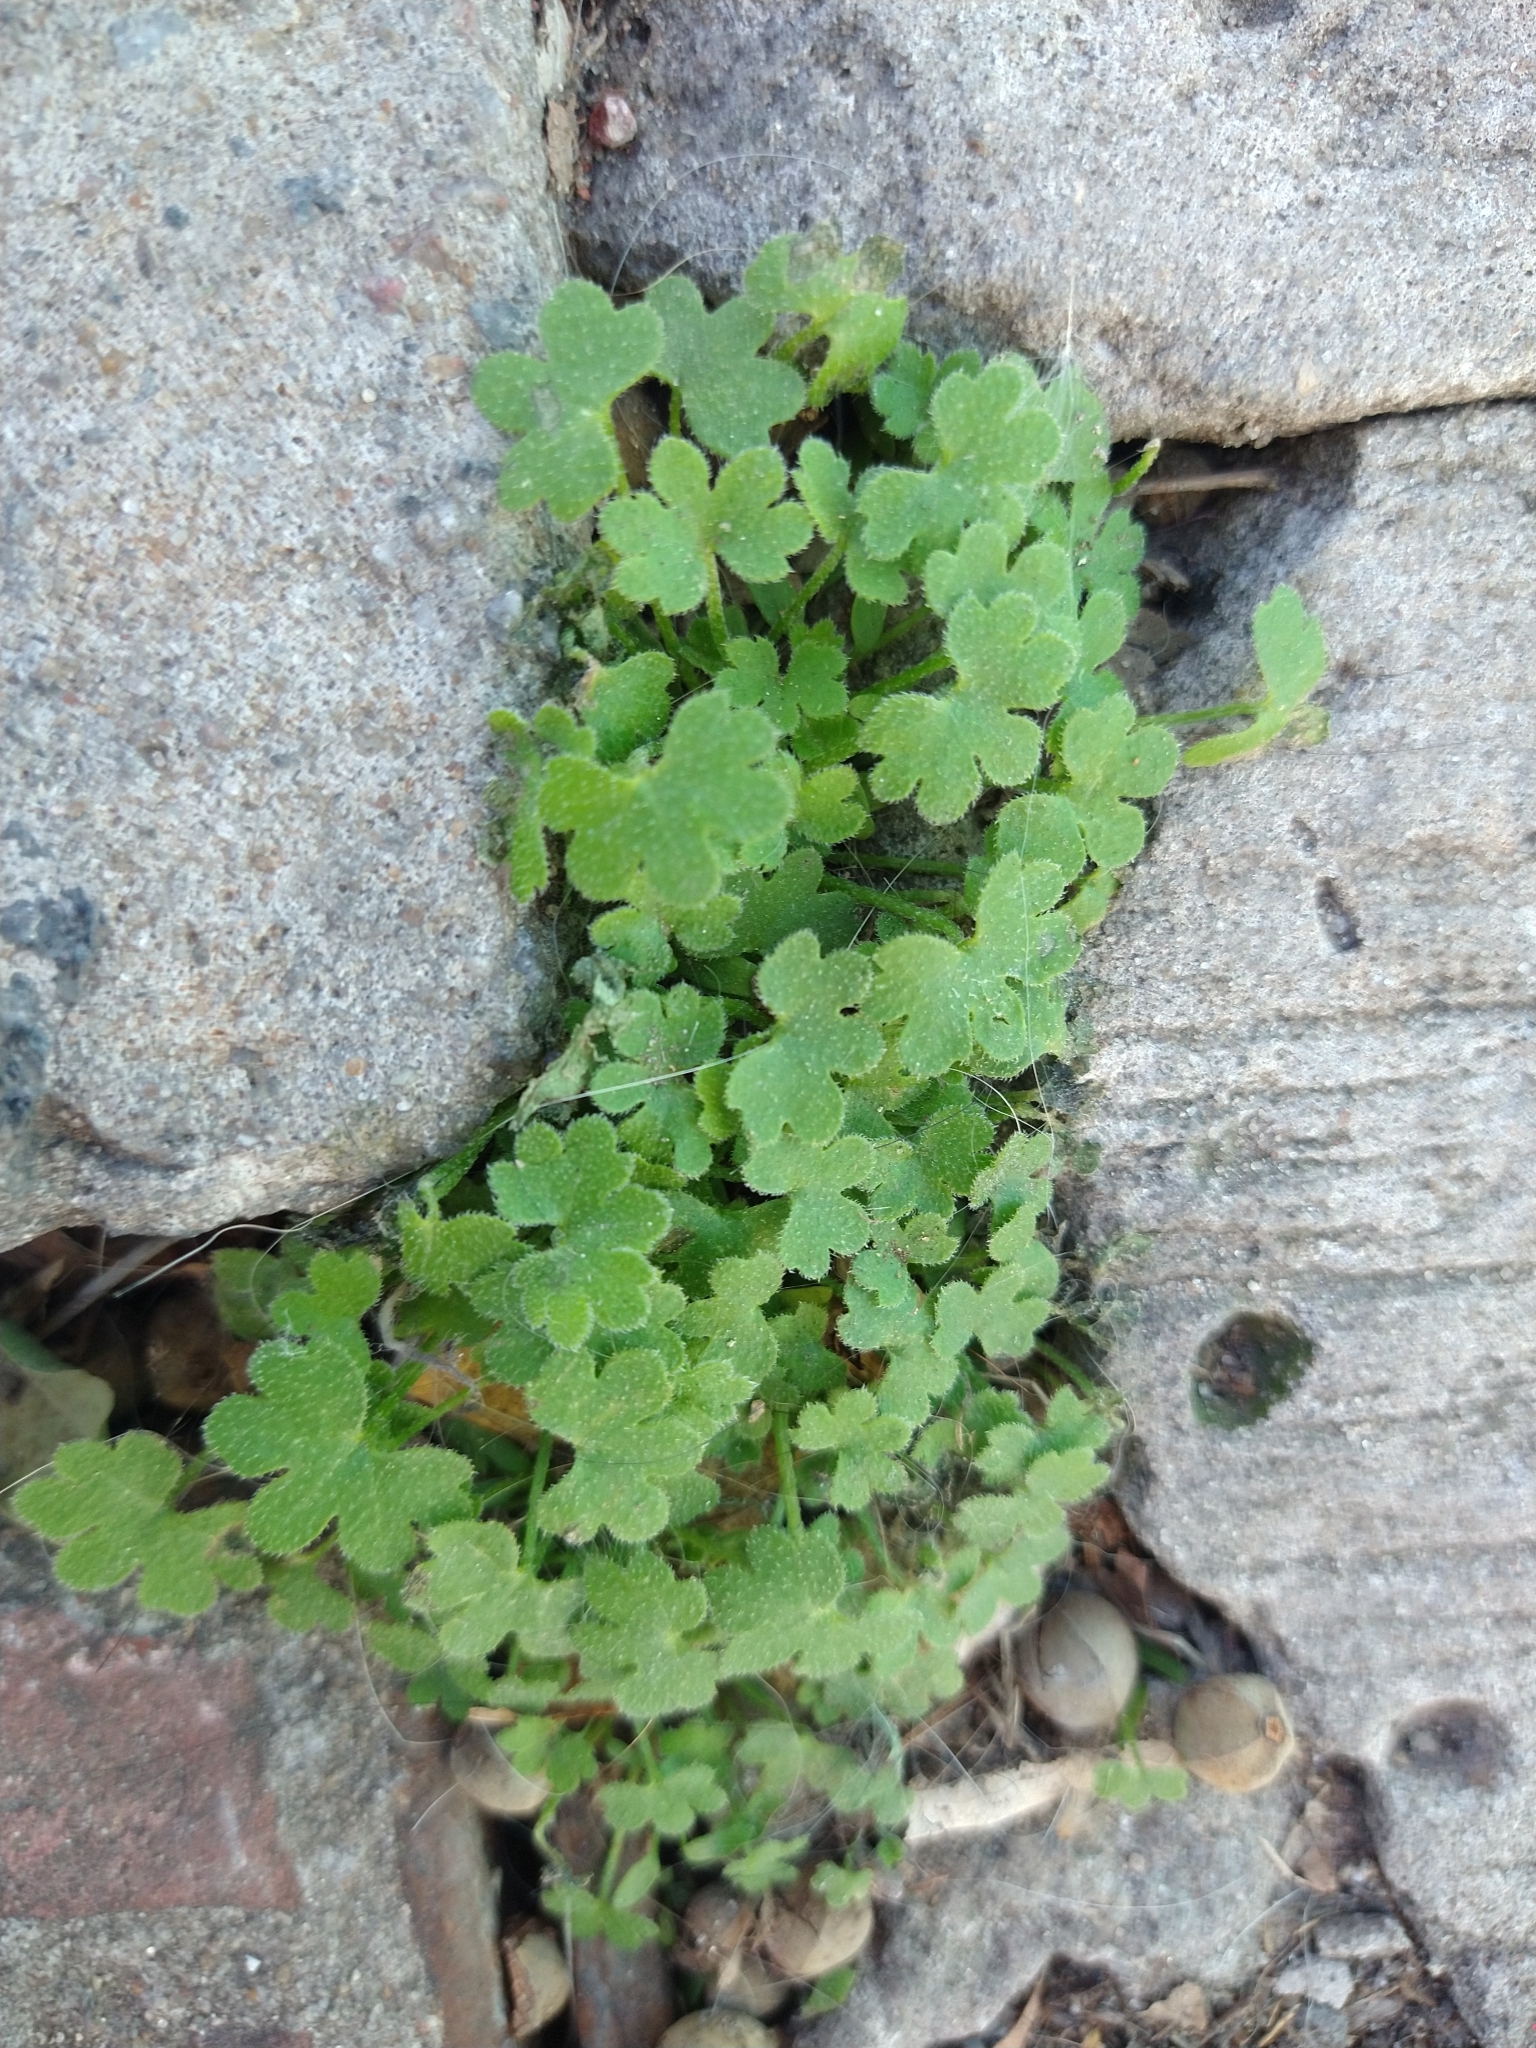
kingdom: Plantae
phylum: Tracheophyta
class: Magnoliopsida
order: Apiales
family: Apiaceae
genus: Bowlesia
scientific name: Bowlesia incana
